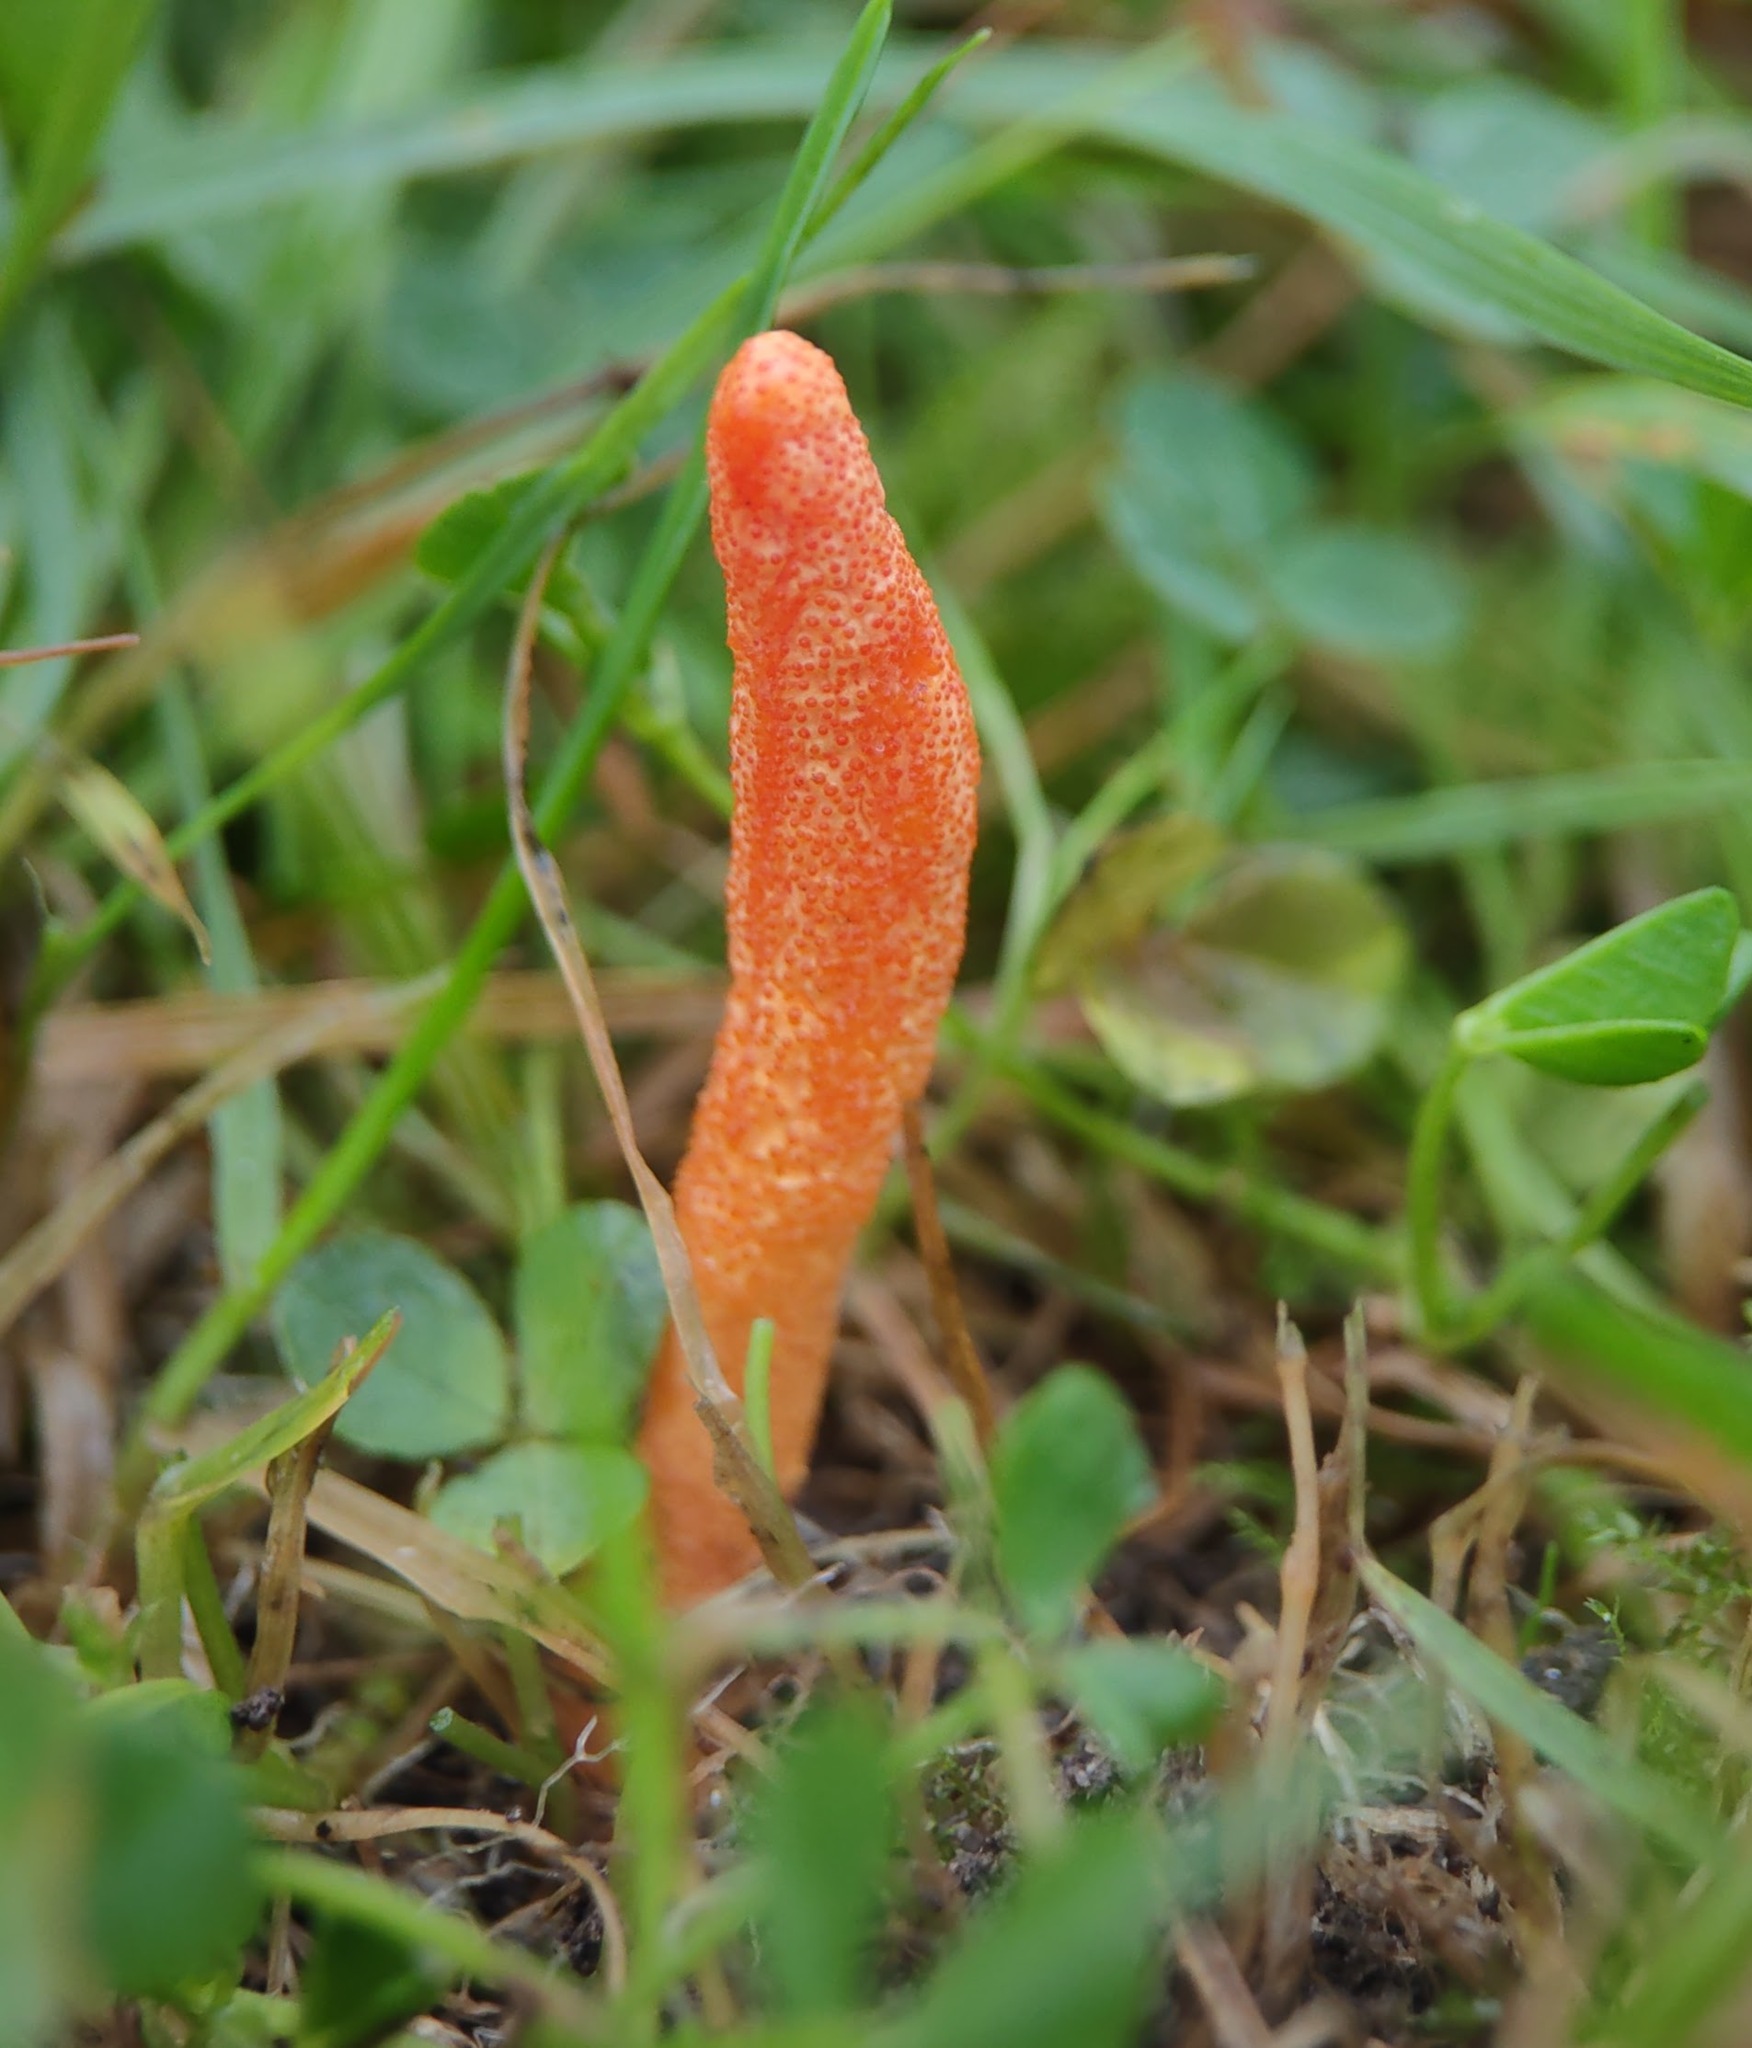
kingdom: Fungi
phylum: Ascomycota
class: Sordariomycetes
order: Hypocreales
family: Cordycipitaceae
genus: Cordyceps
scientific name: Cordyceps militaris
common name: Scarlet caterpillar fungus
